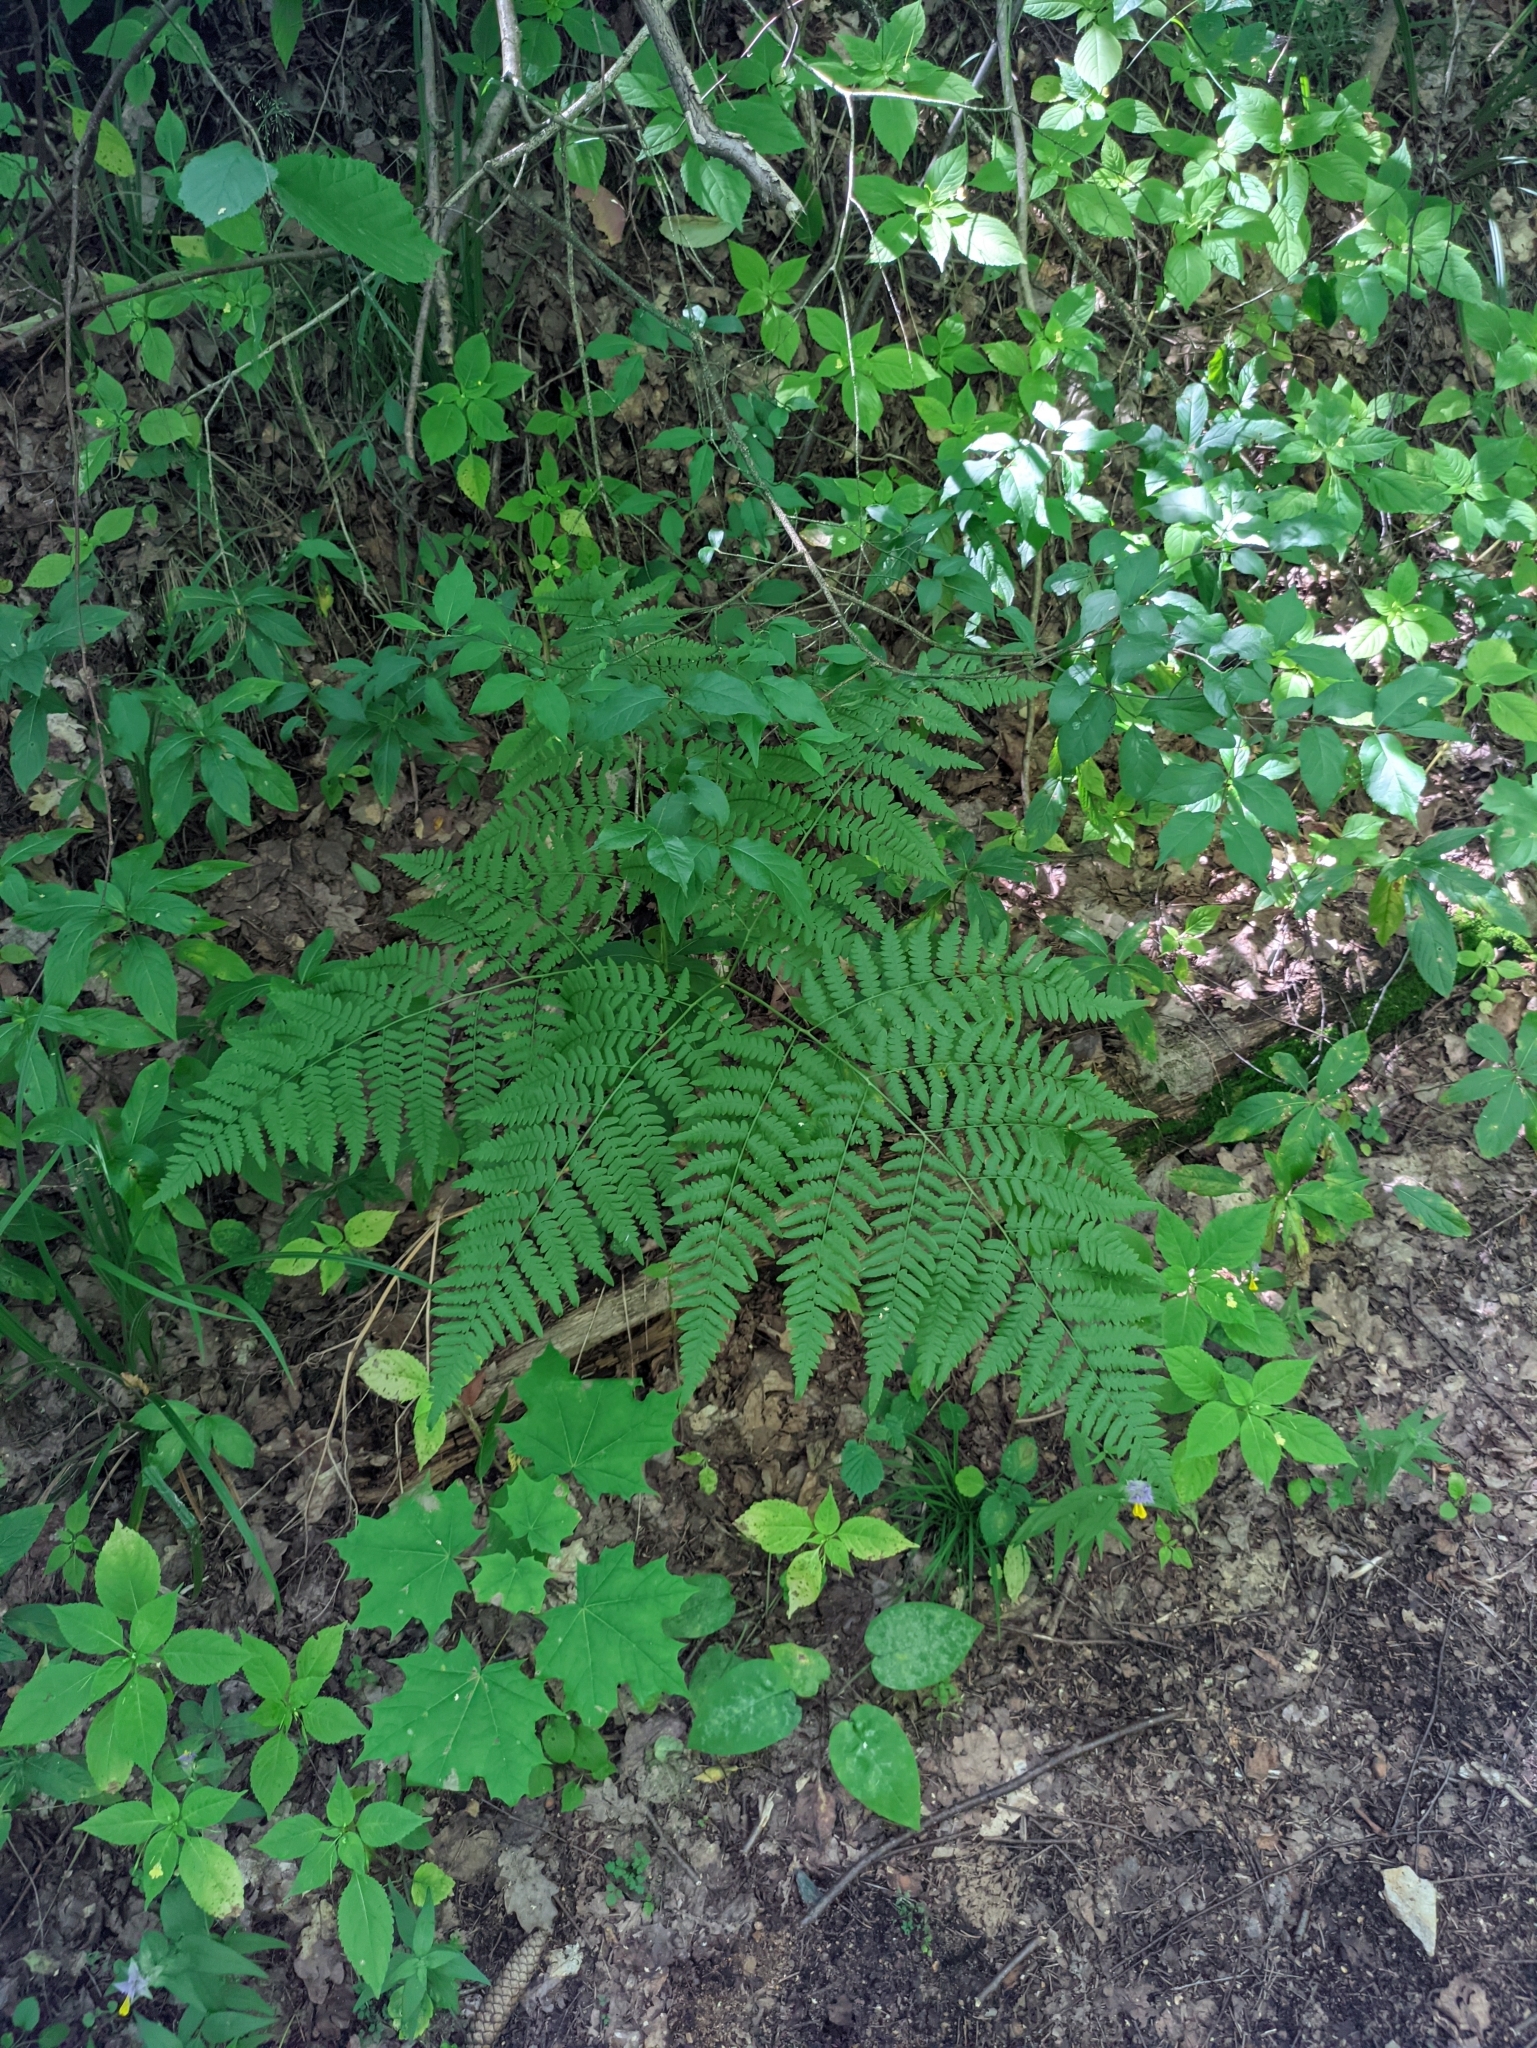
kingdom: Plantae
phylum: Tracheophyta
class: Polypodiopsida
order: Polypodiales
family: Dennstaedtiaceae
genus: Pteridium
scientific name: Pteridium aquilinum
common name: Bracken
